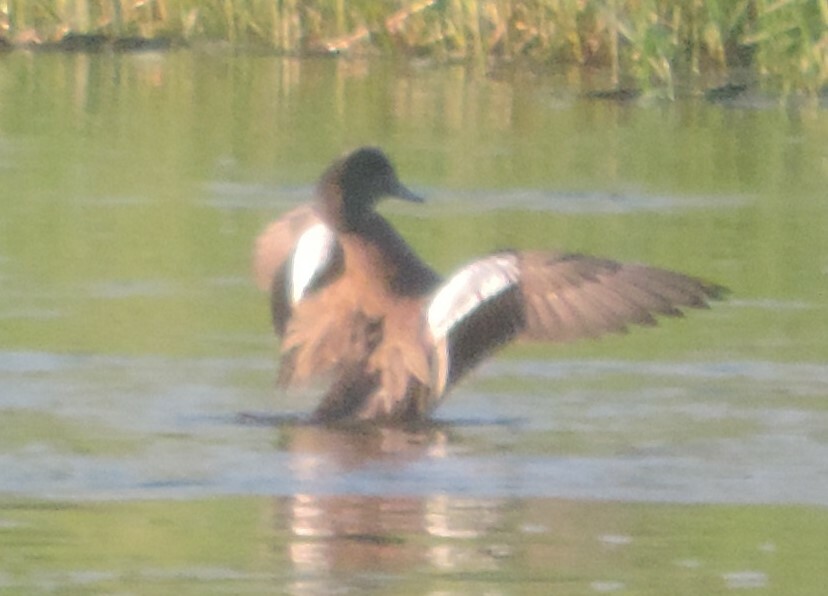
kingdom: Animalia
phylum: Chordata
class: Aves
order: Anseriformes
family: Anatidae
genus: Mareca
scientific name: Mareca americana
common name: American wigeon
